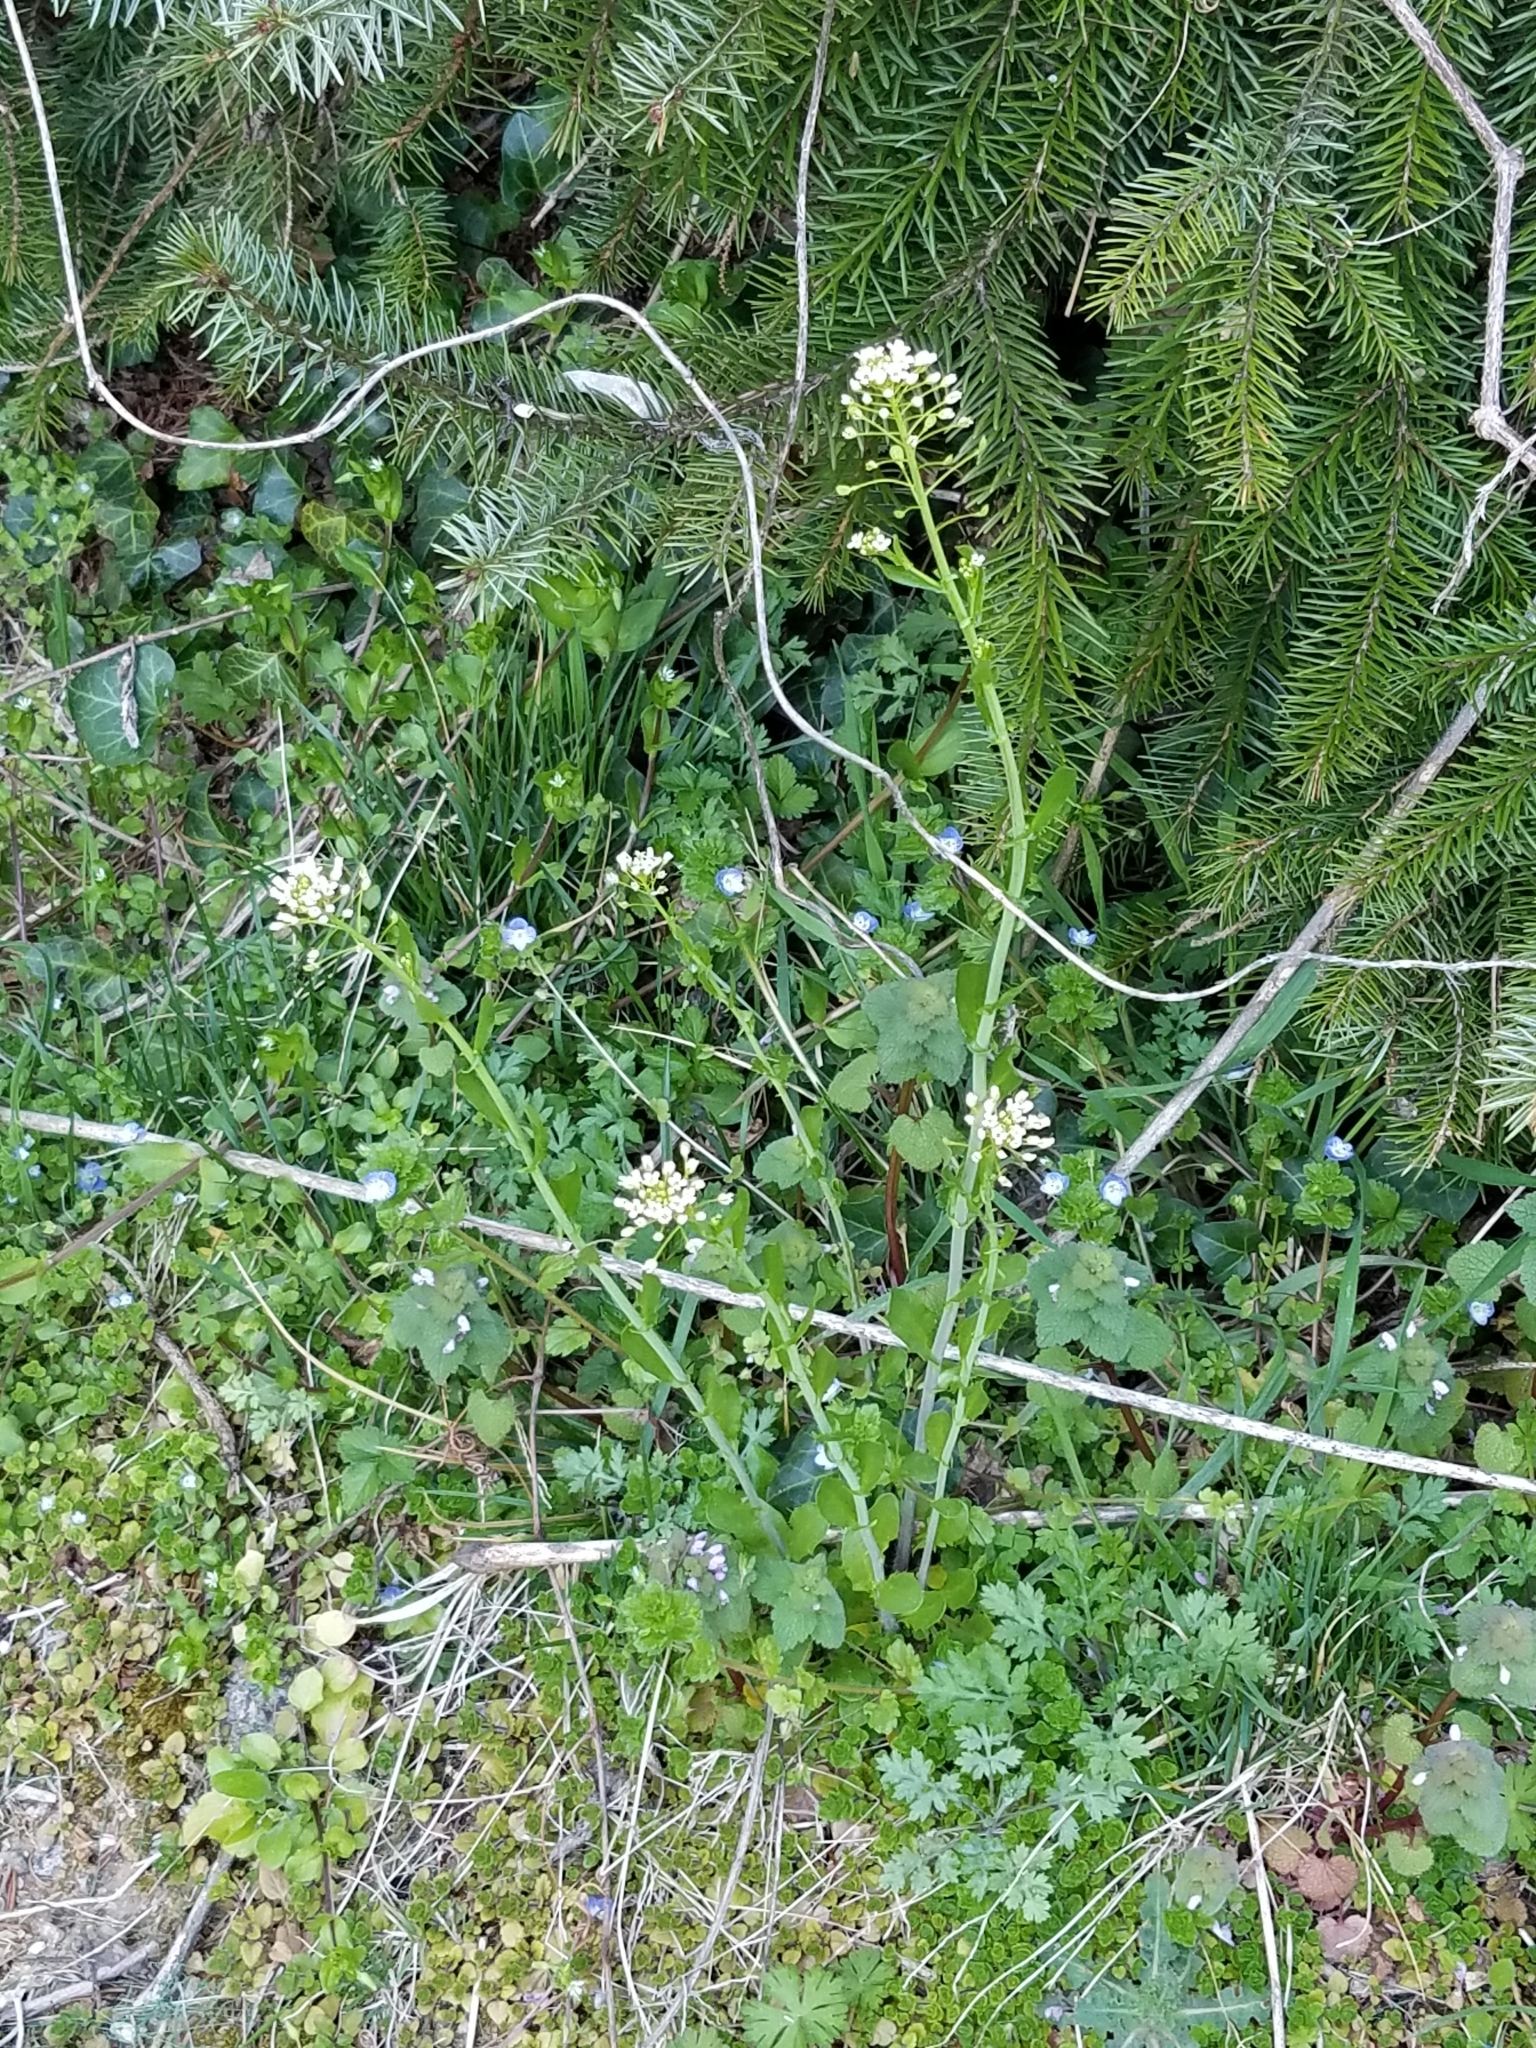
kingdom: Plantae
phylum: Tracheophyta
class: Magnoliopsida
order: Brassicales
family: Brassicaceae
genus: Mummenhoffia
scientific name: Mummenhoffia alliacea
